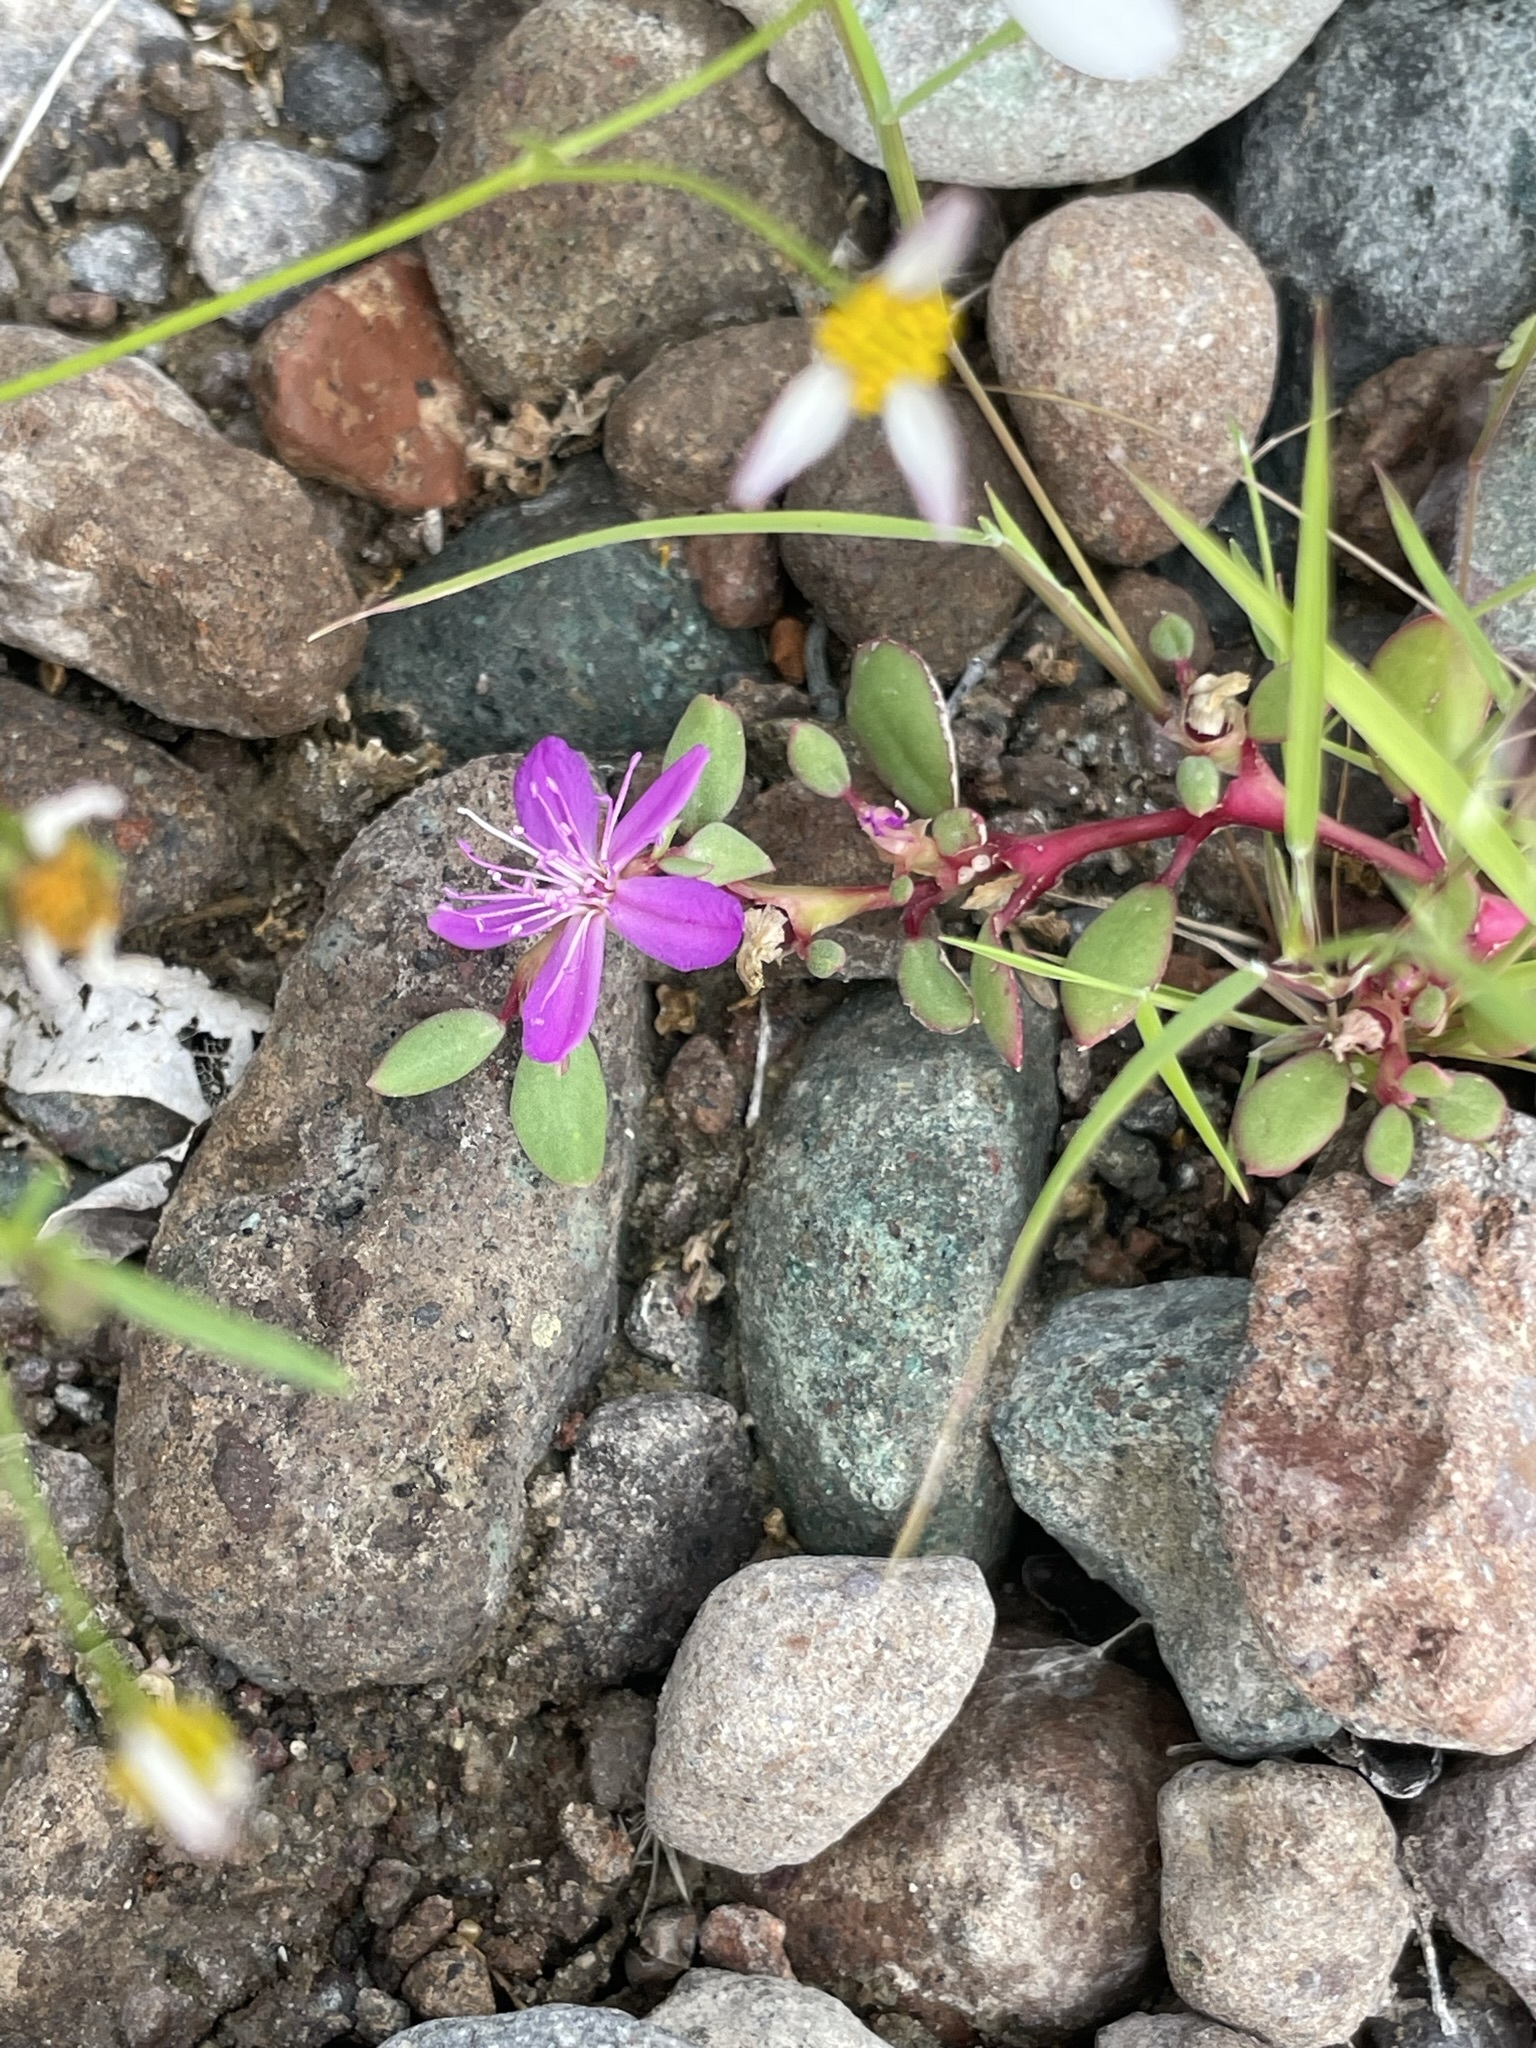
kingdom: Plantae
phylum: Tracheophyta
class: Magnoliopsida
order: Caryophyllales
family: Aizoaceae
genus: Trianthema
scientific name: Trianthema portulacastrum
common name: Desert horsepurslane
